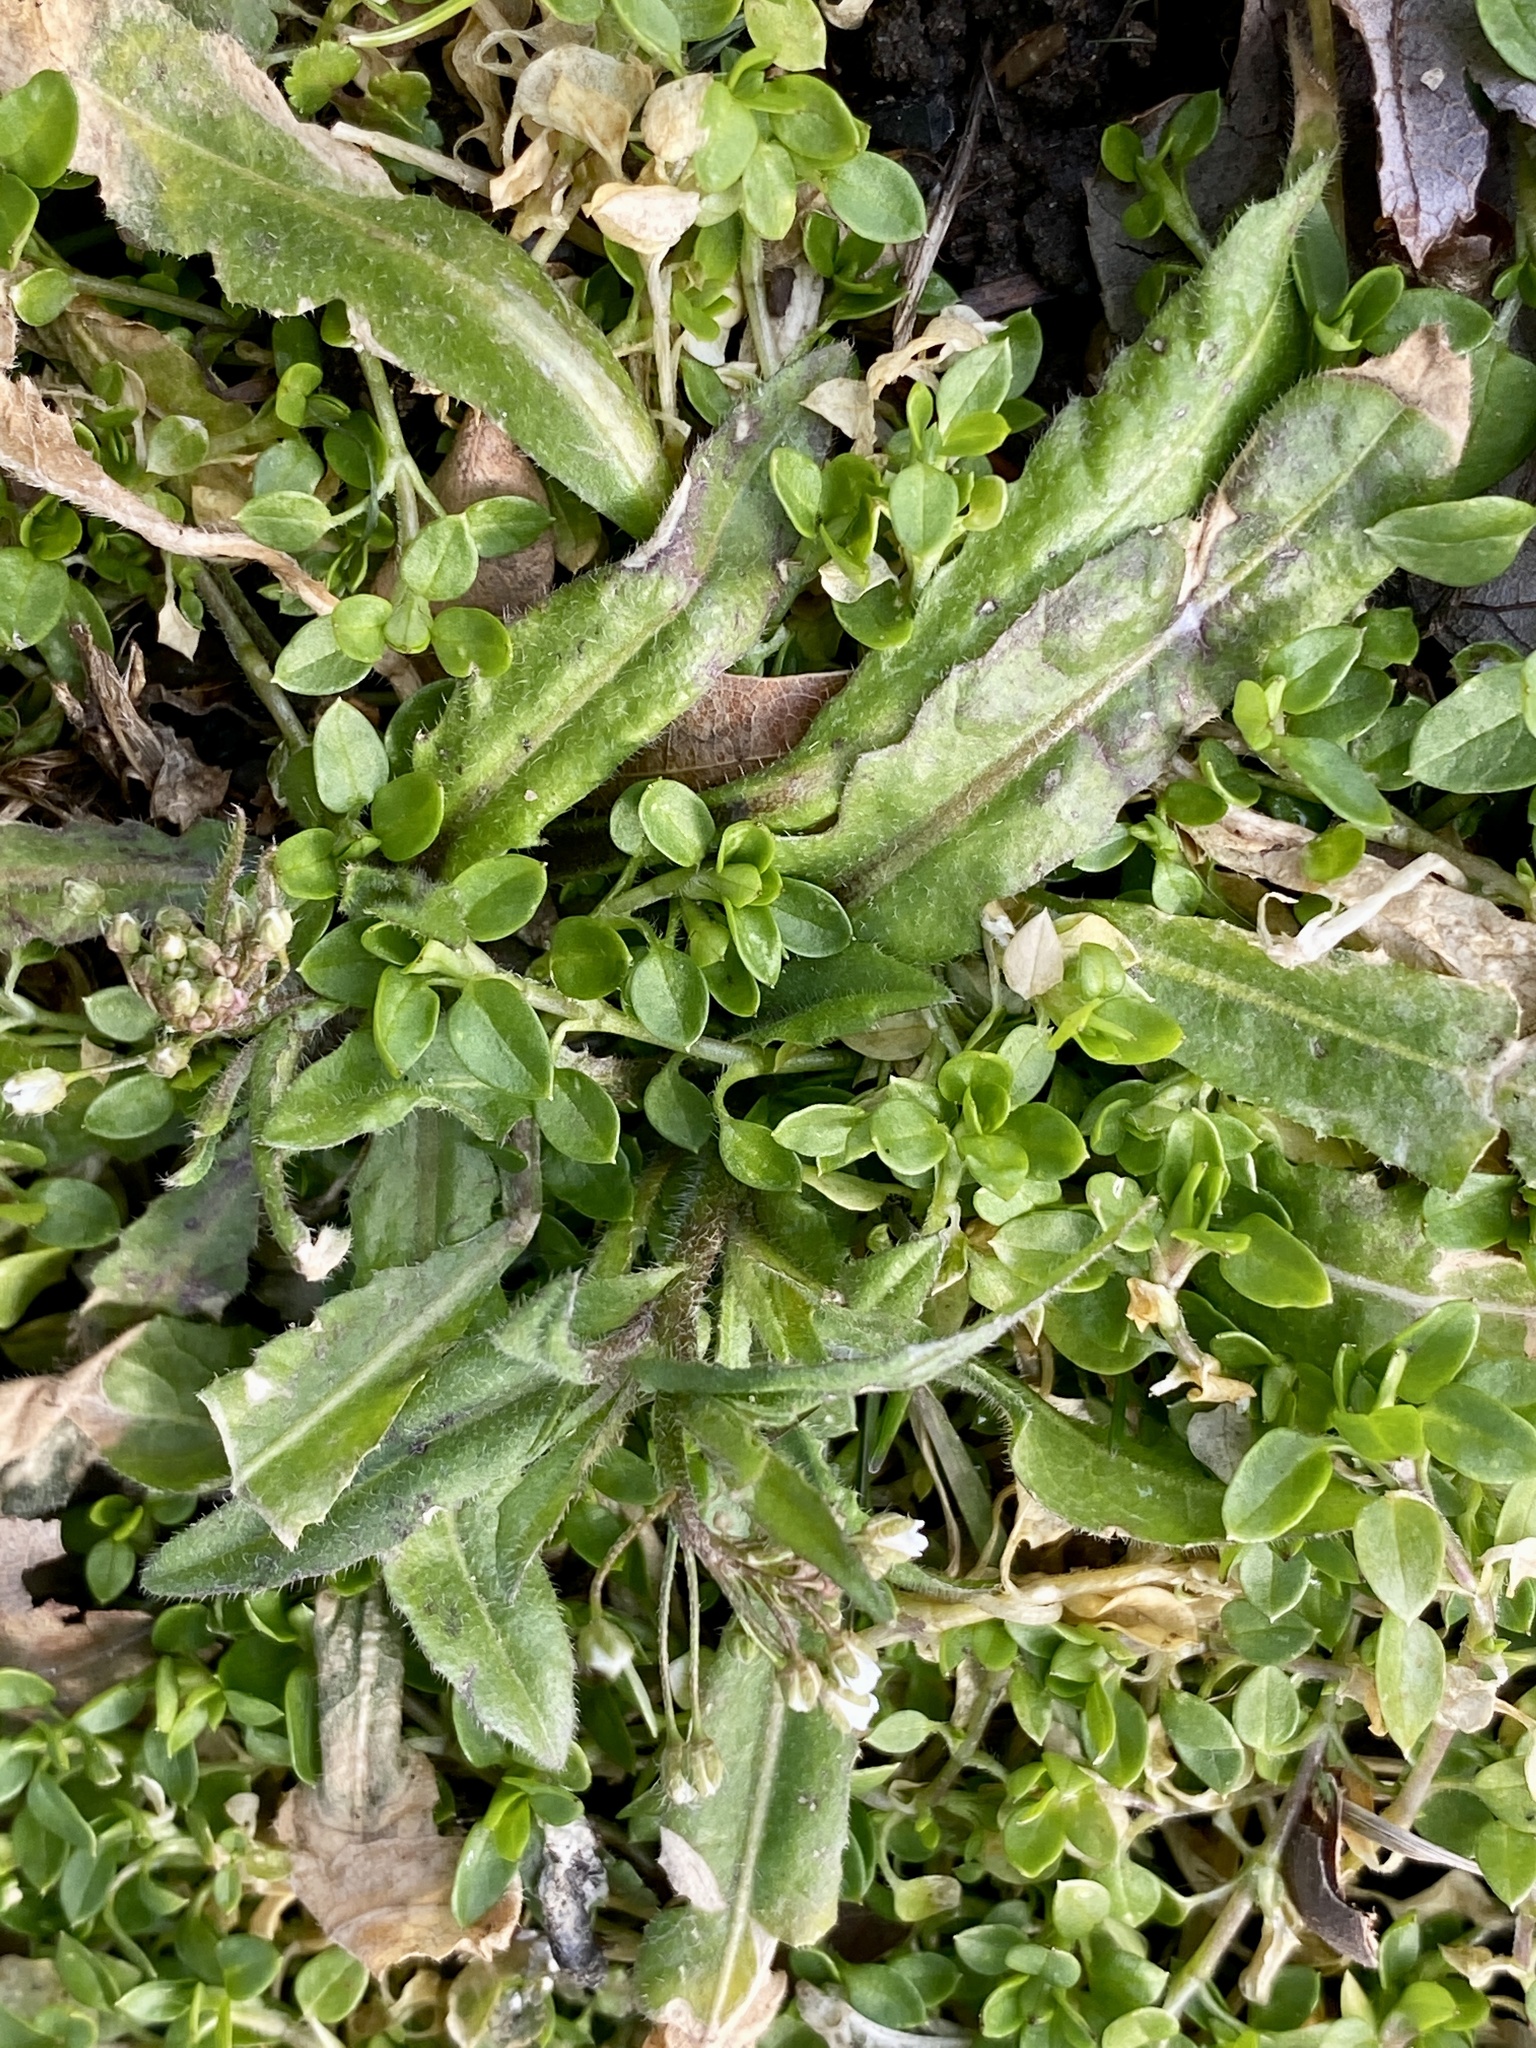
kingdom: Plantae
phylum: Tracheophyta
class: Magnoliopsida
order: Brassicales
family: Brassicaceae
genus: Capsella
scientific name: Capsella bursa-pastoris
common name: Shepherd's purse
